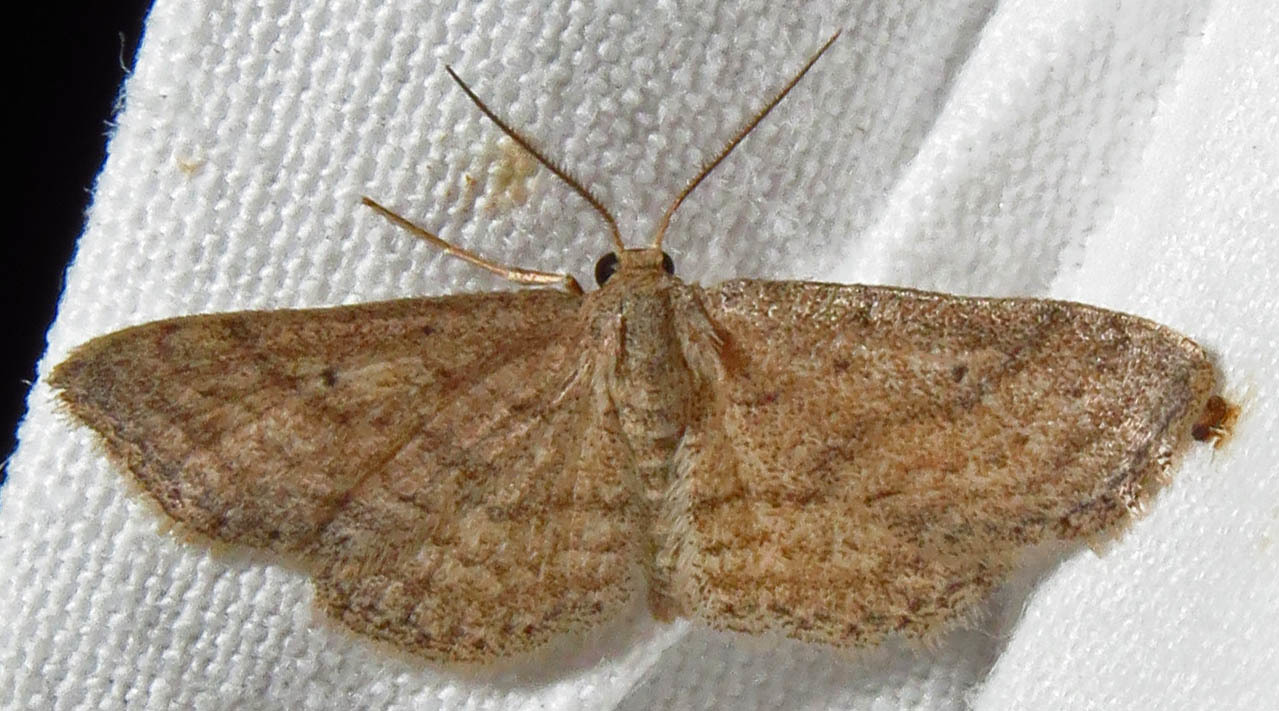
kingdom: Animalia
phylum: Arthropoda
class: Insecta
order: Lepidoptera
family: Geometridae
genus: Lobocleta
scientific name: Lobocleta ossularia
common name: Drab brown wave
